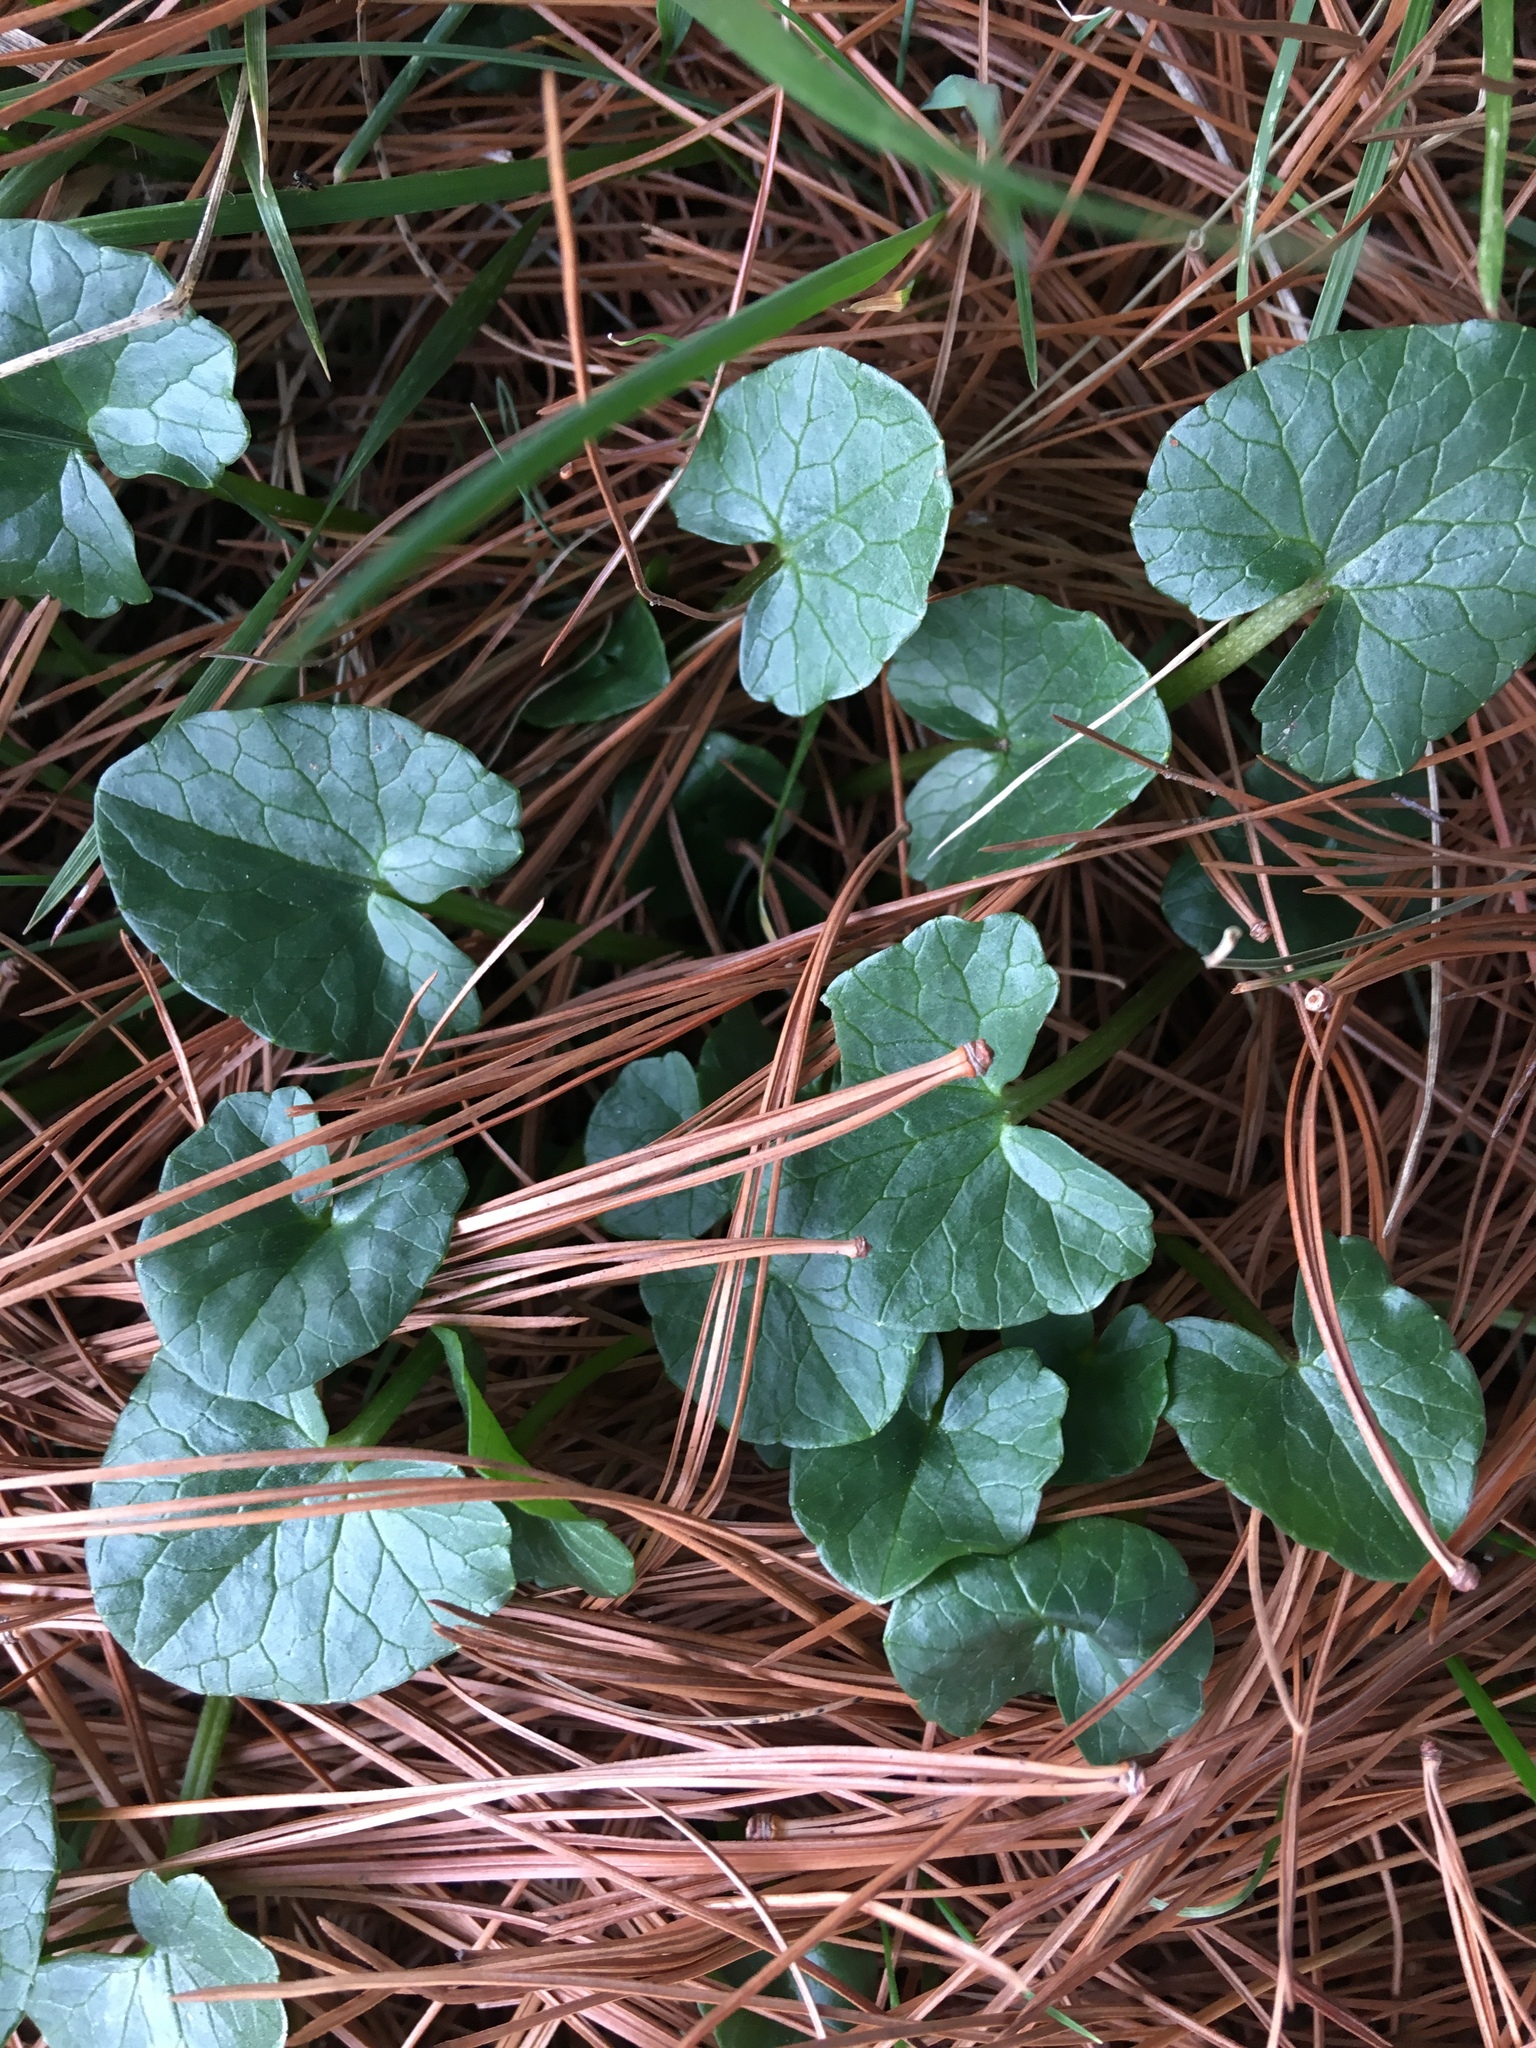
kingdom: Plantae
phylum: Tracheophyta
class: Magnoliopsida
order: Ranunculales
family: Ranunculaceae
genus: Ficaria
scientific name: Ficaria verna
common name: Lesser celandine
